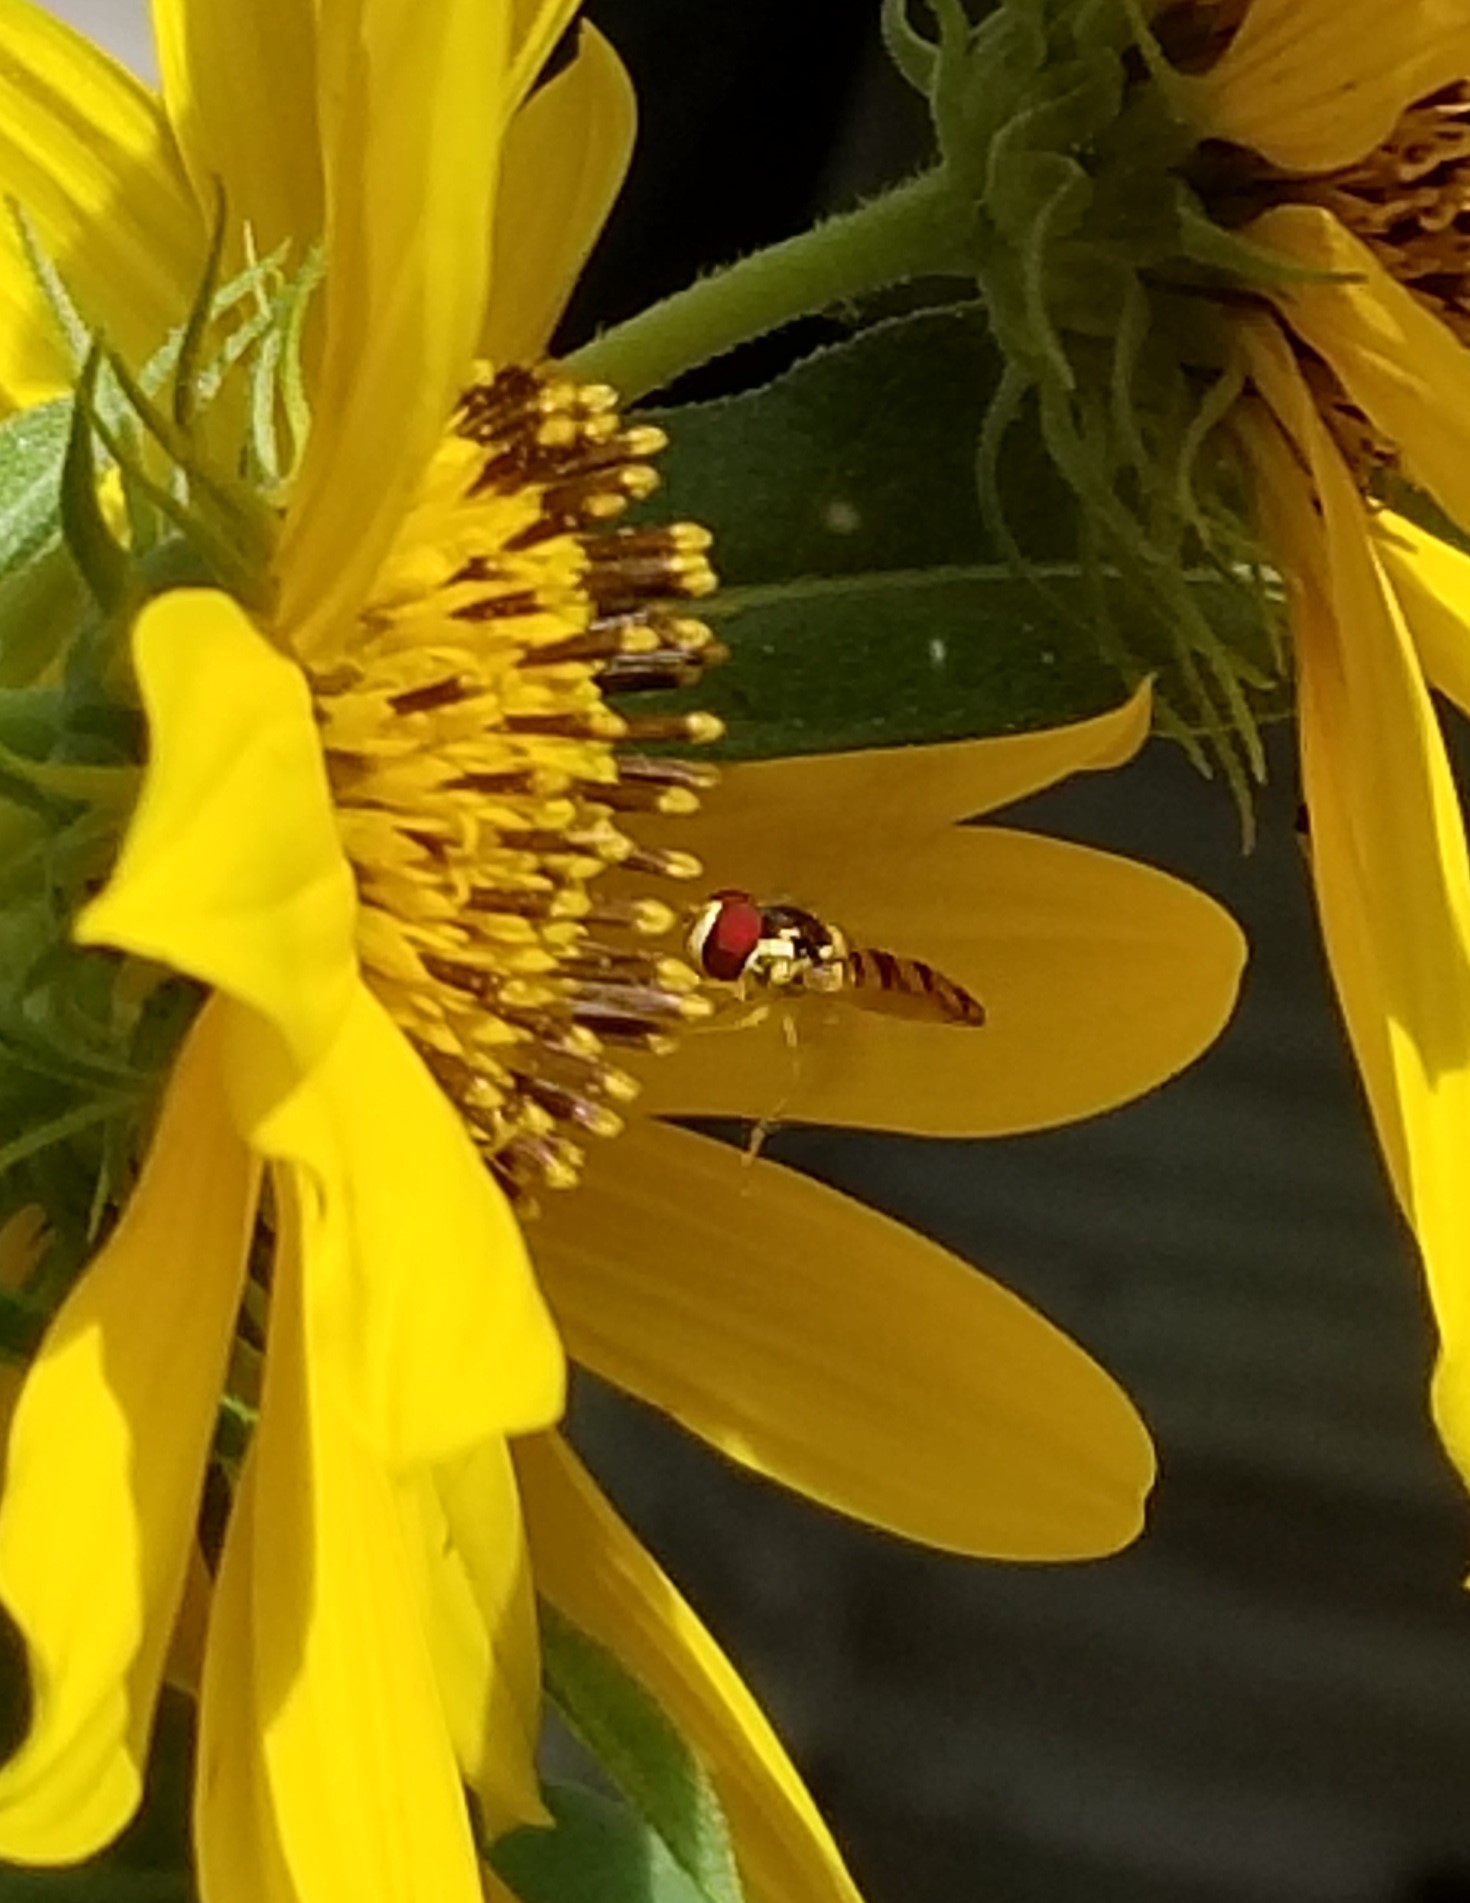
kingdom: Animalia
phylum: Arthropoda
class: Insecta
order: Diptera
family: Syrphidae
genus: Allograpta
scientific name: Allograpta obliqua
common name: Common oblique syrphid
